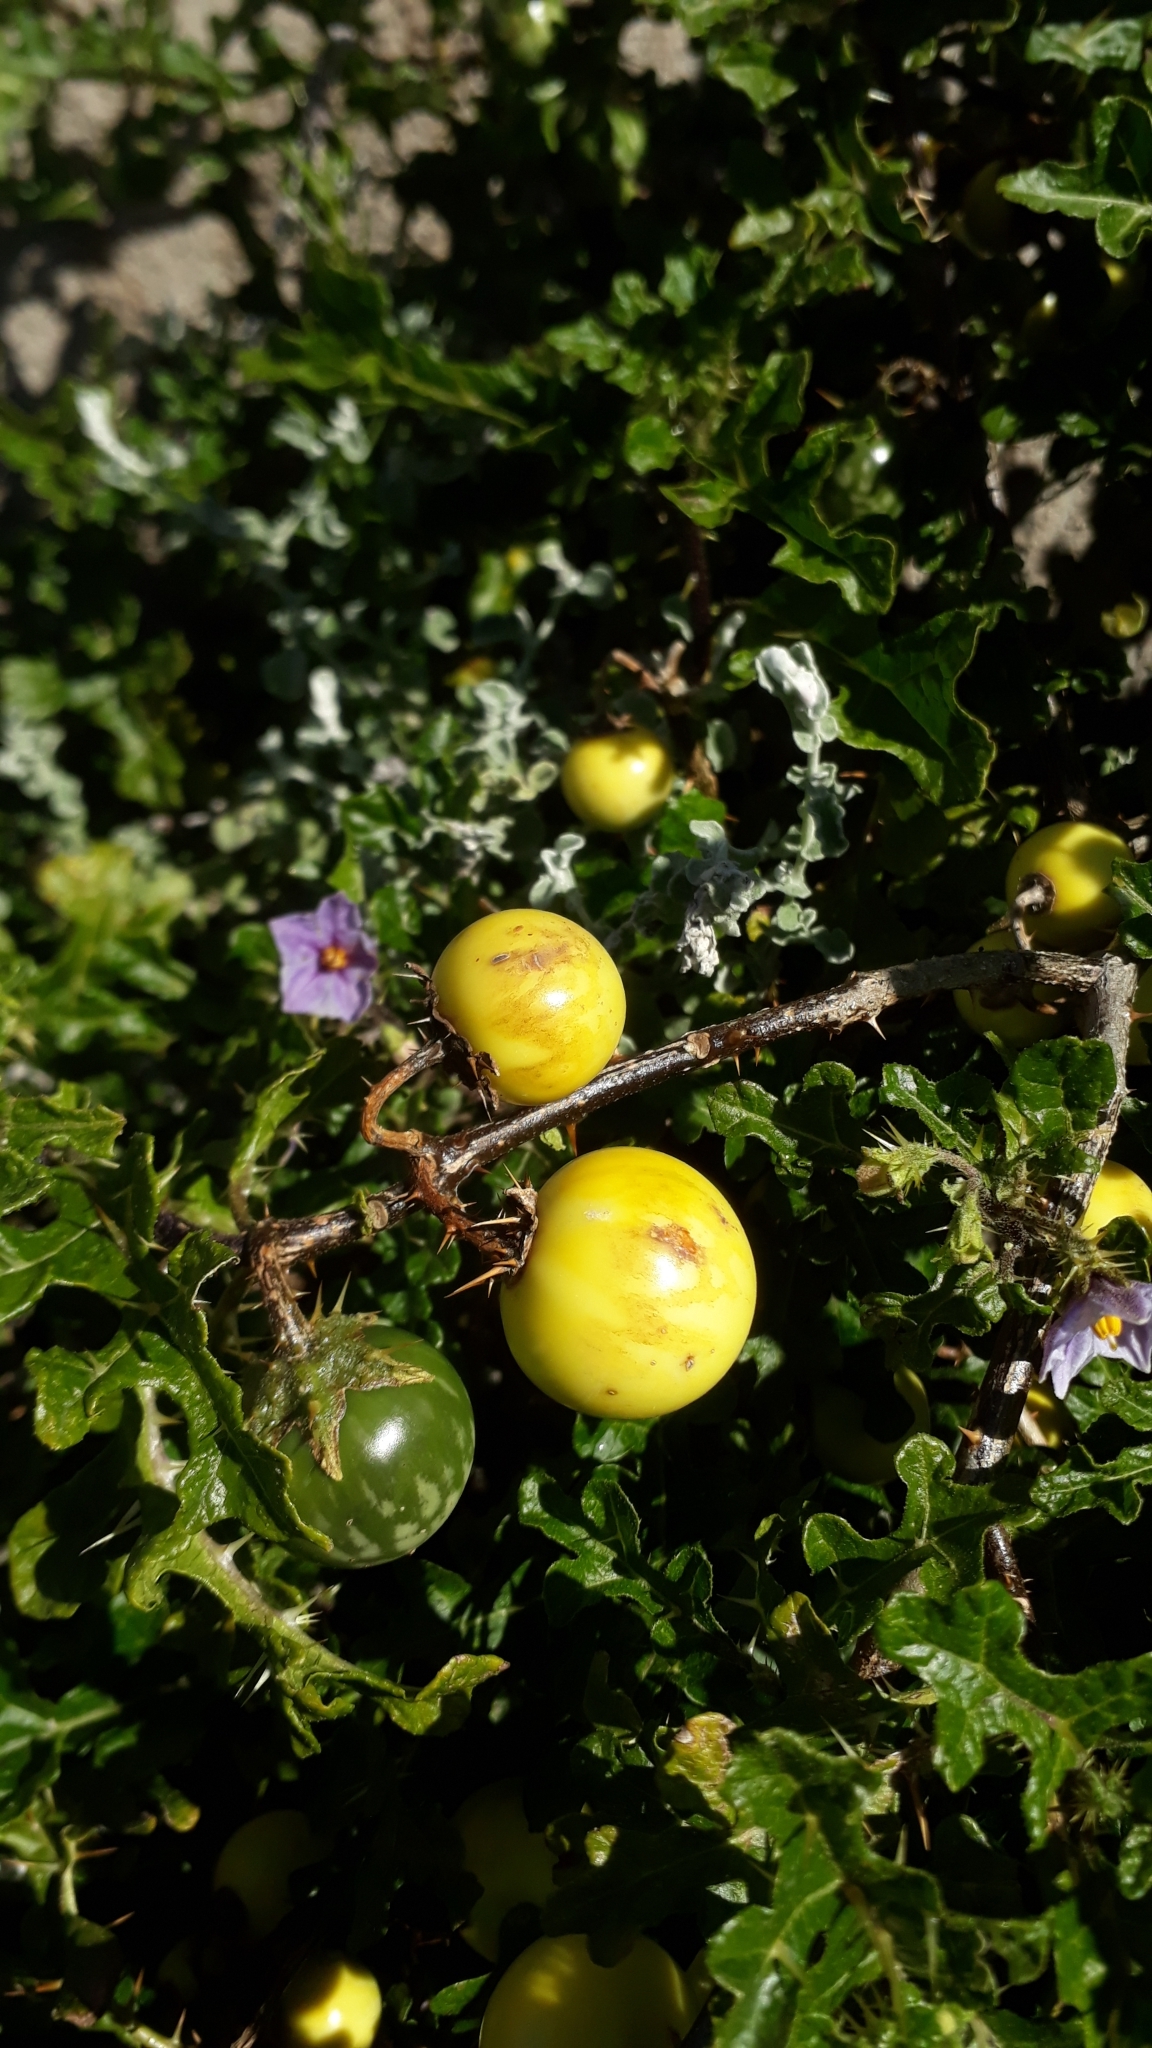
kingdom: Plantae
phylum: Tracheophyta
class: Magnoliopsida
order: Solanales
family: Solanaceae
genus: Solanum
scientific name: Solanum linnaeanum
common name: Nightshade
